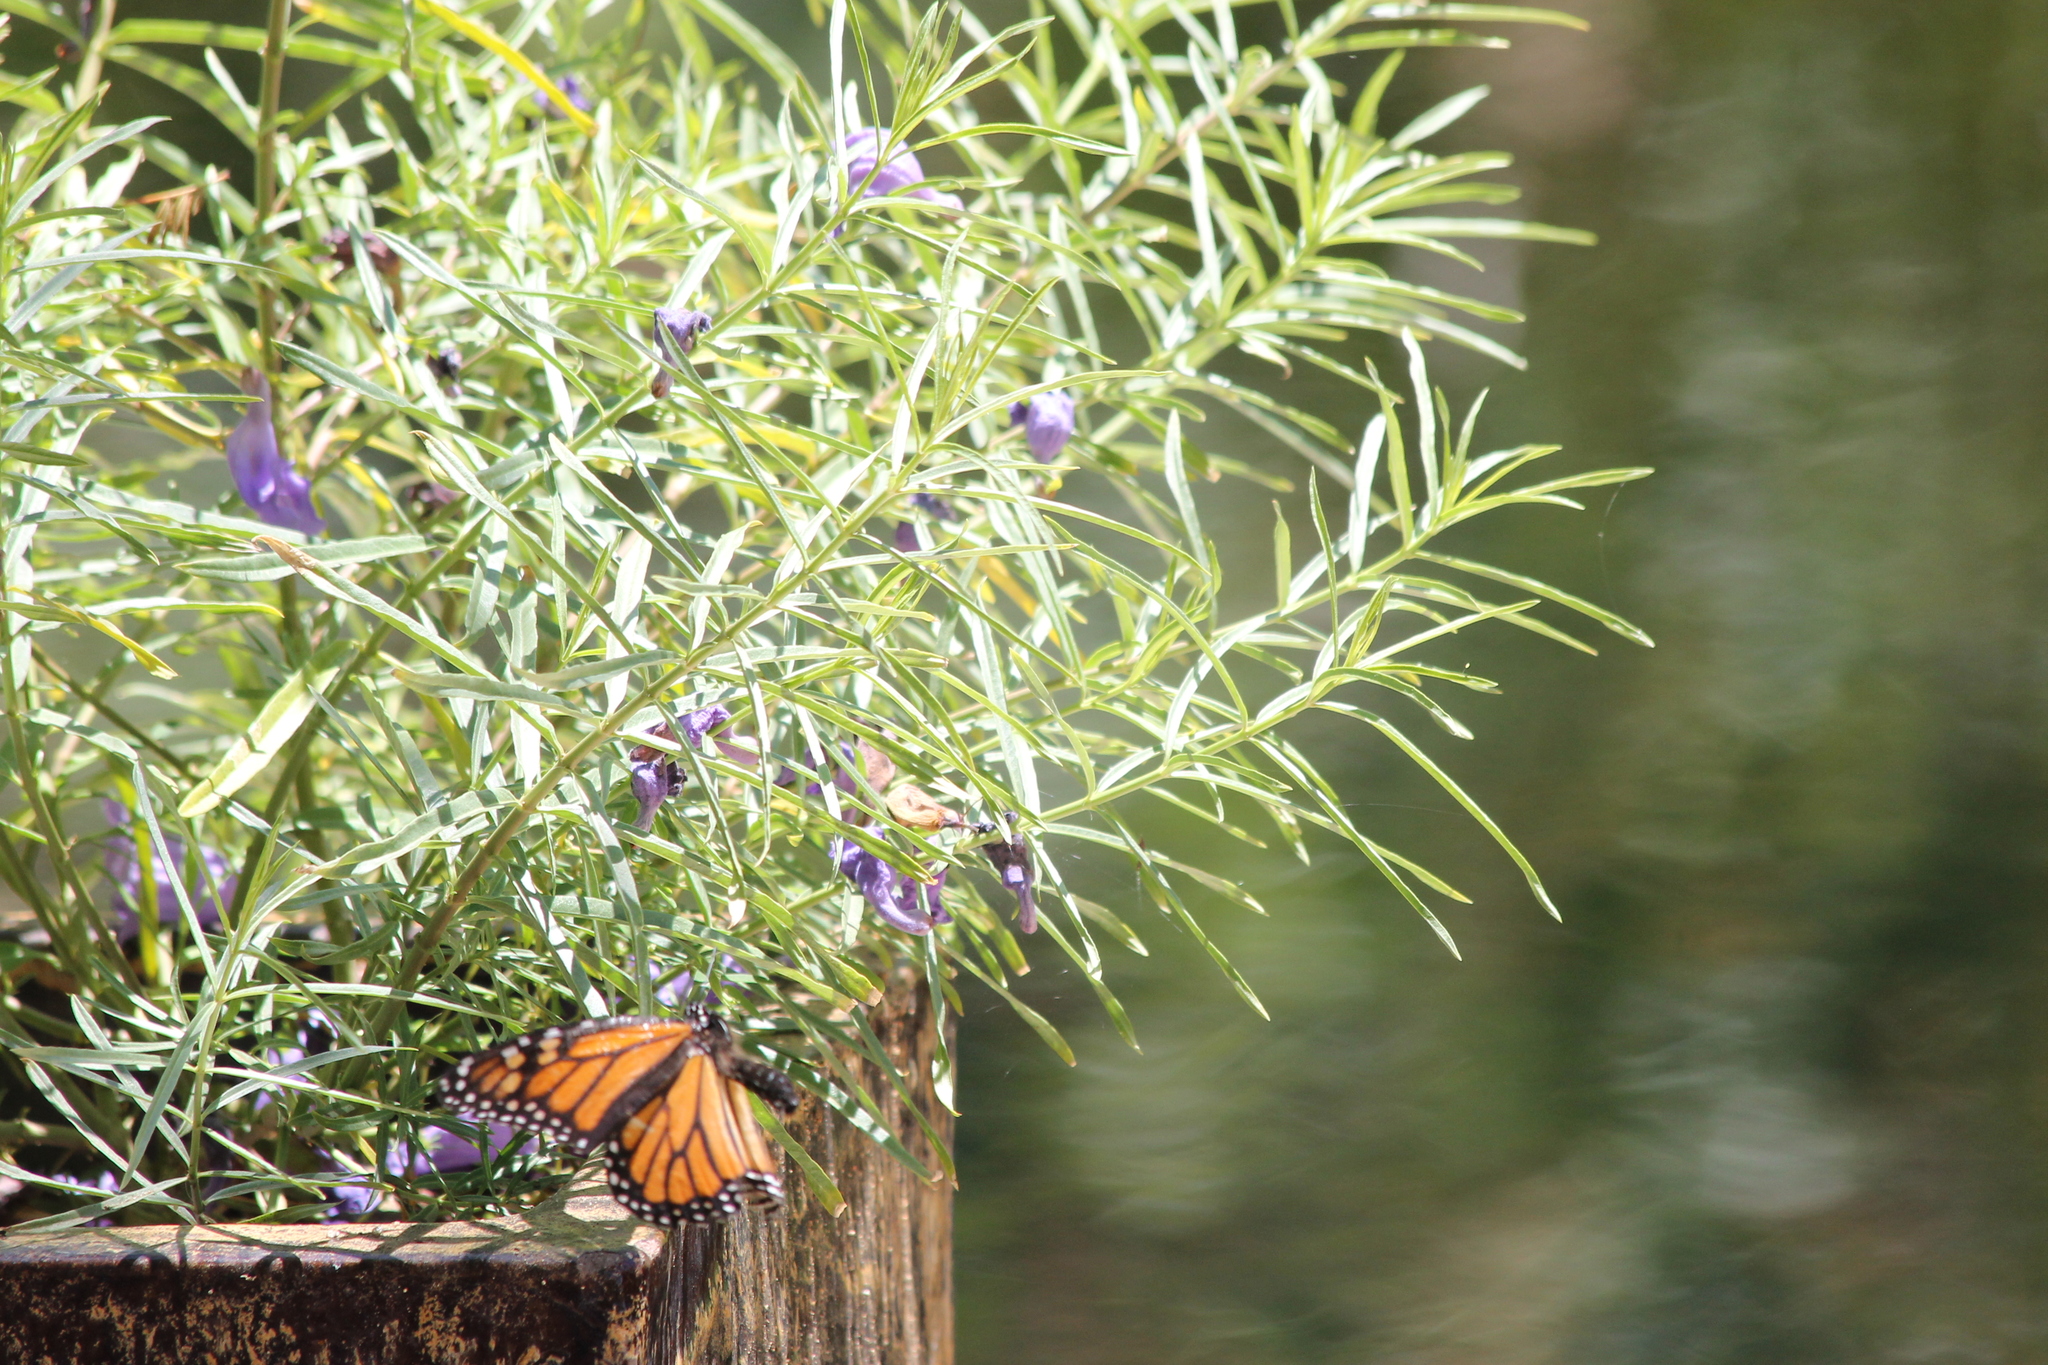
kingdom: Animalia
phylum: Arthropoda
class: Insecta
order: Lepidoptera
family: Nymphalidae
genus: Danaus
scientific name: Danaus plexippus
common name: Monarch
